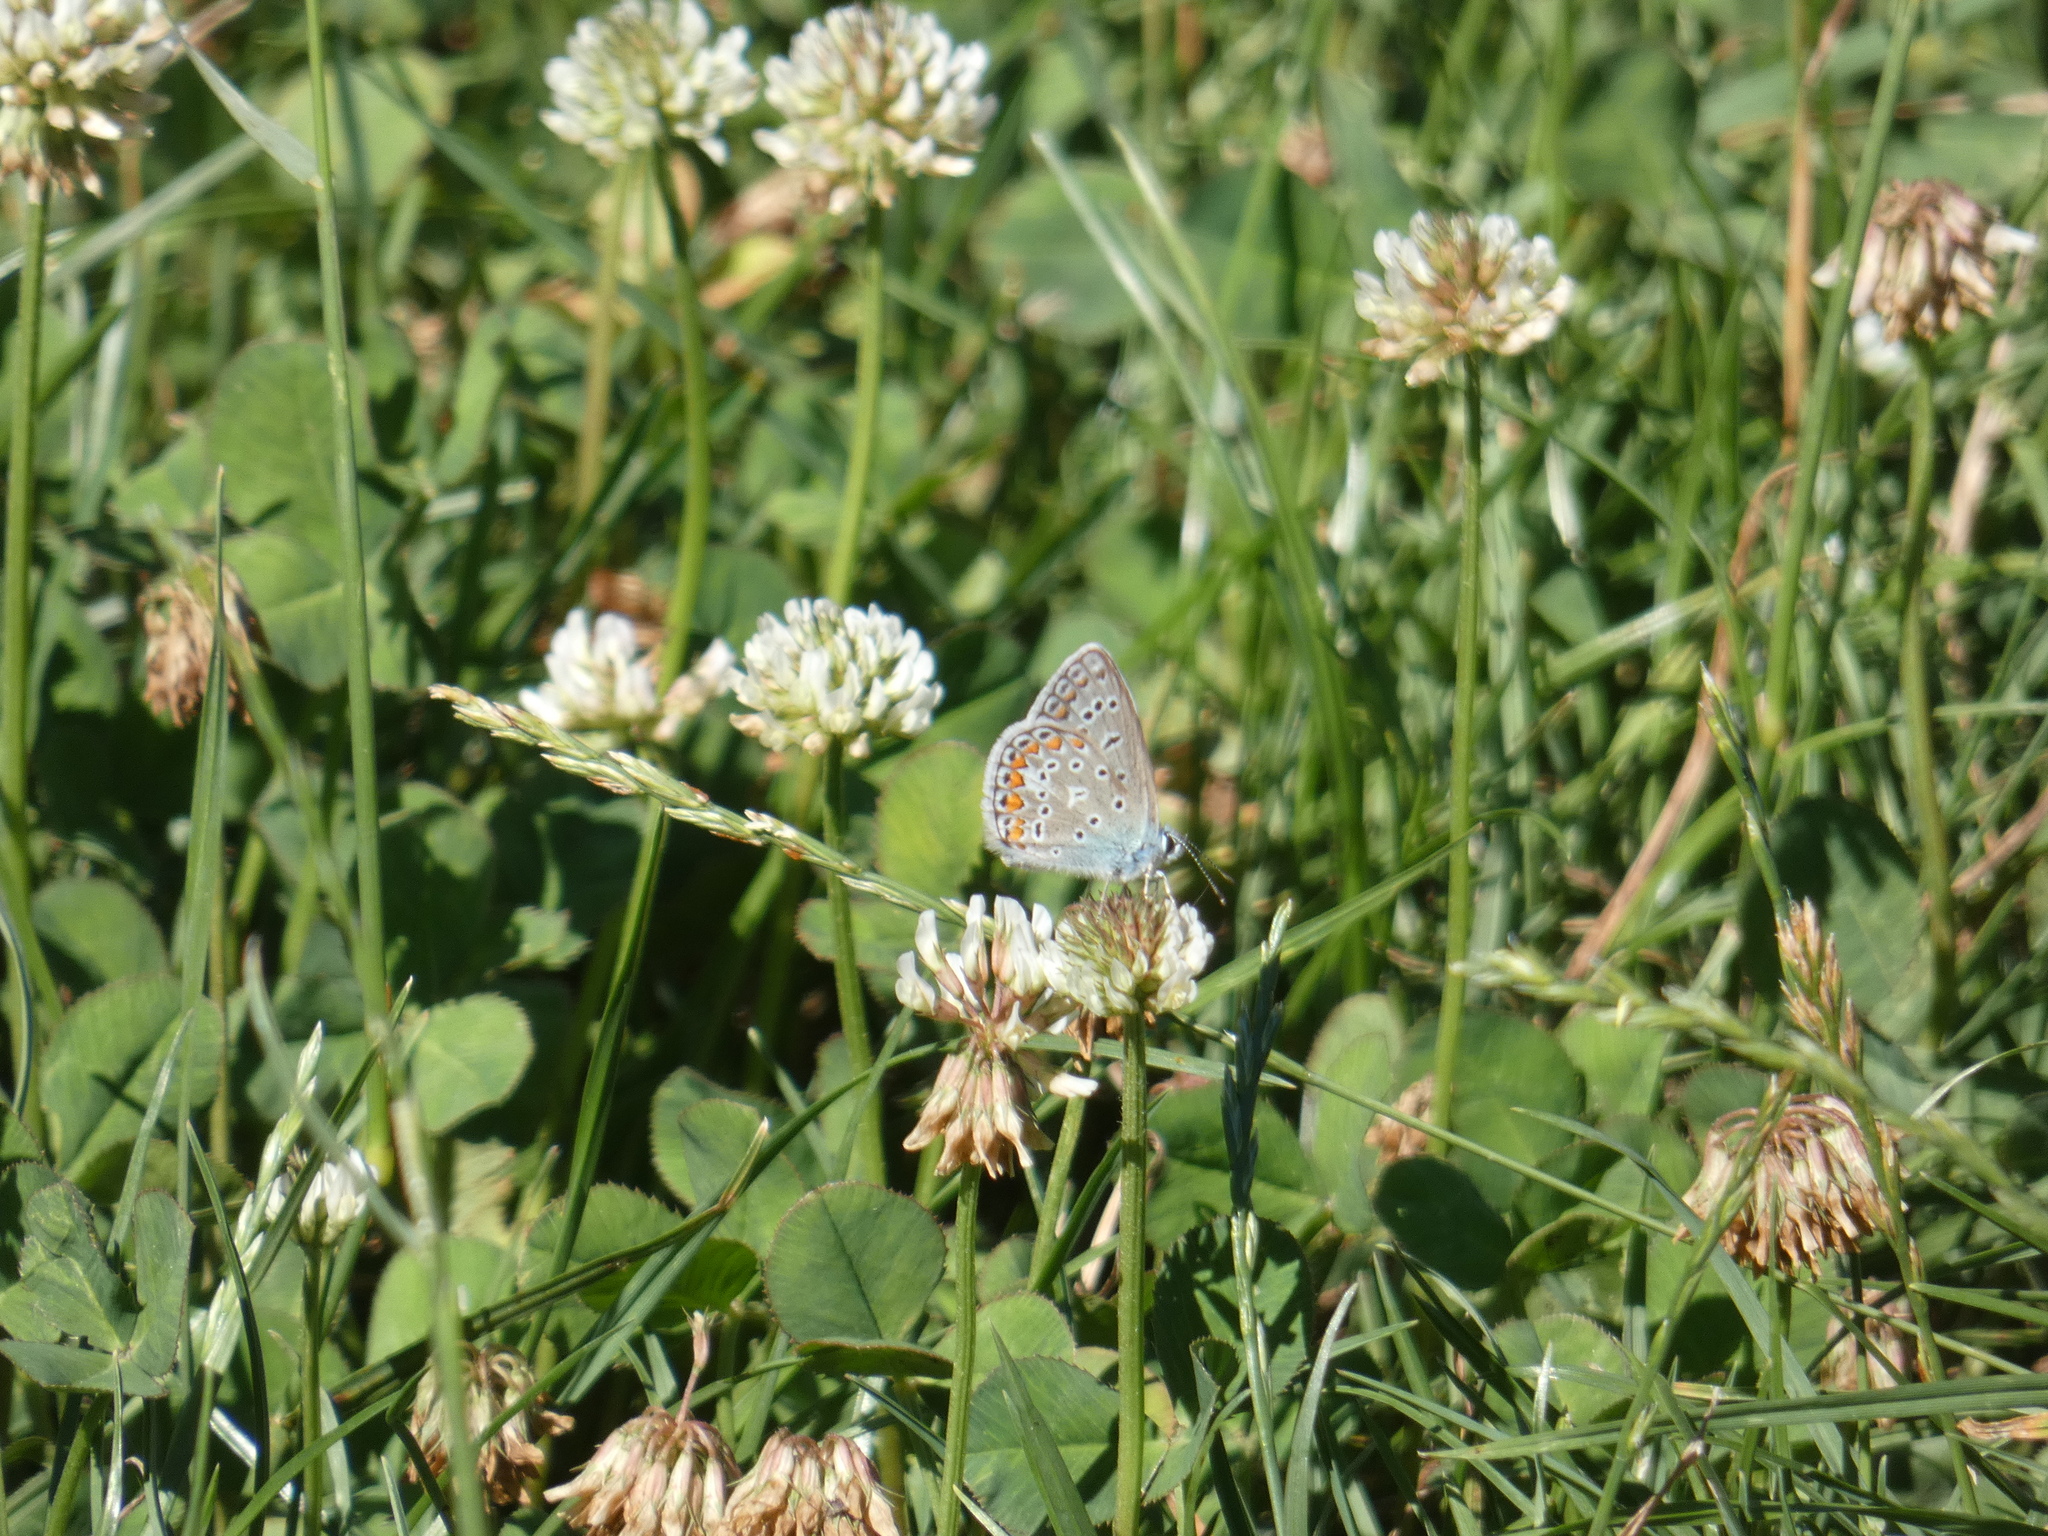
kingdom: Animalia
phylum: Arthropoda
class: Insecta
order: Lepidoptera
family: Lycaenidae
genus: Polyommatus
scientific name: Polyommatus icarus
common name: Common blue
